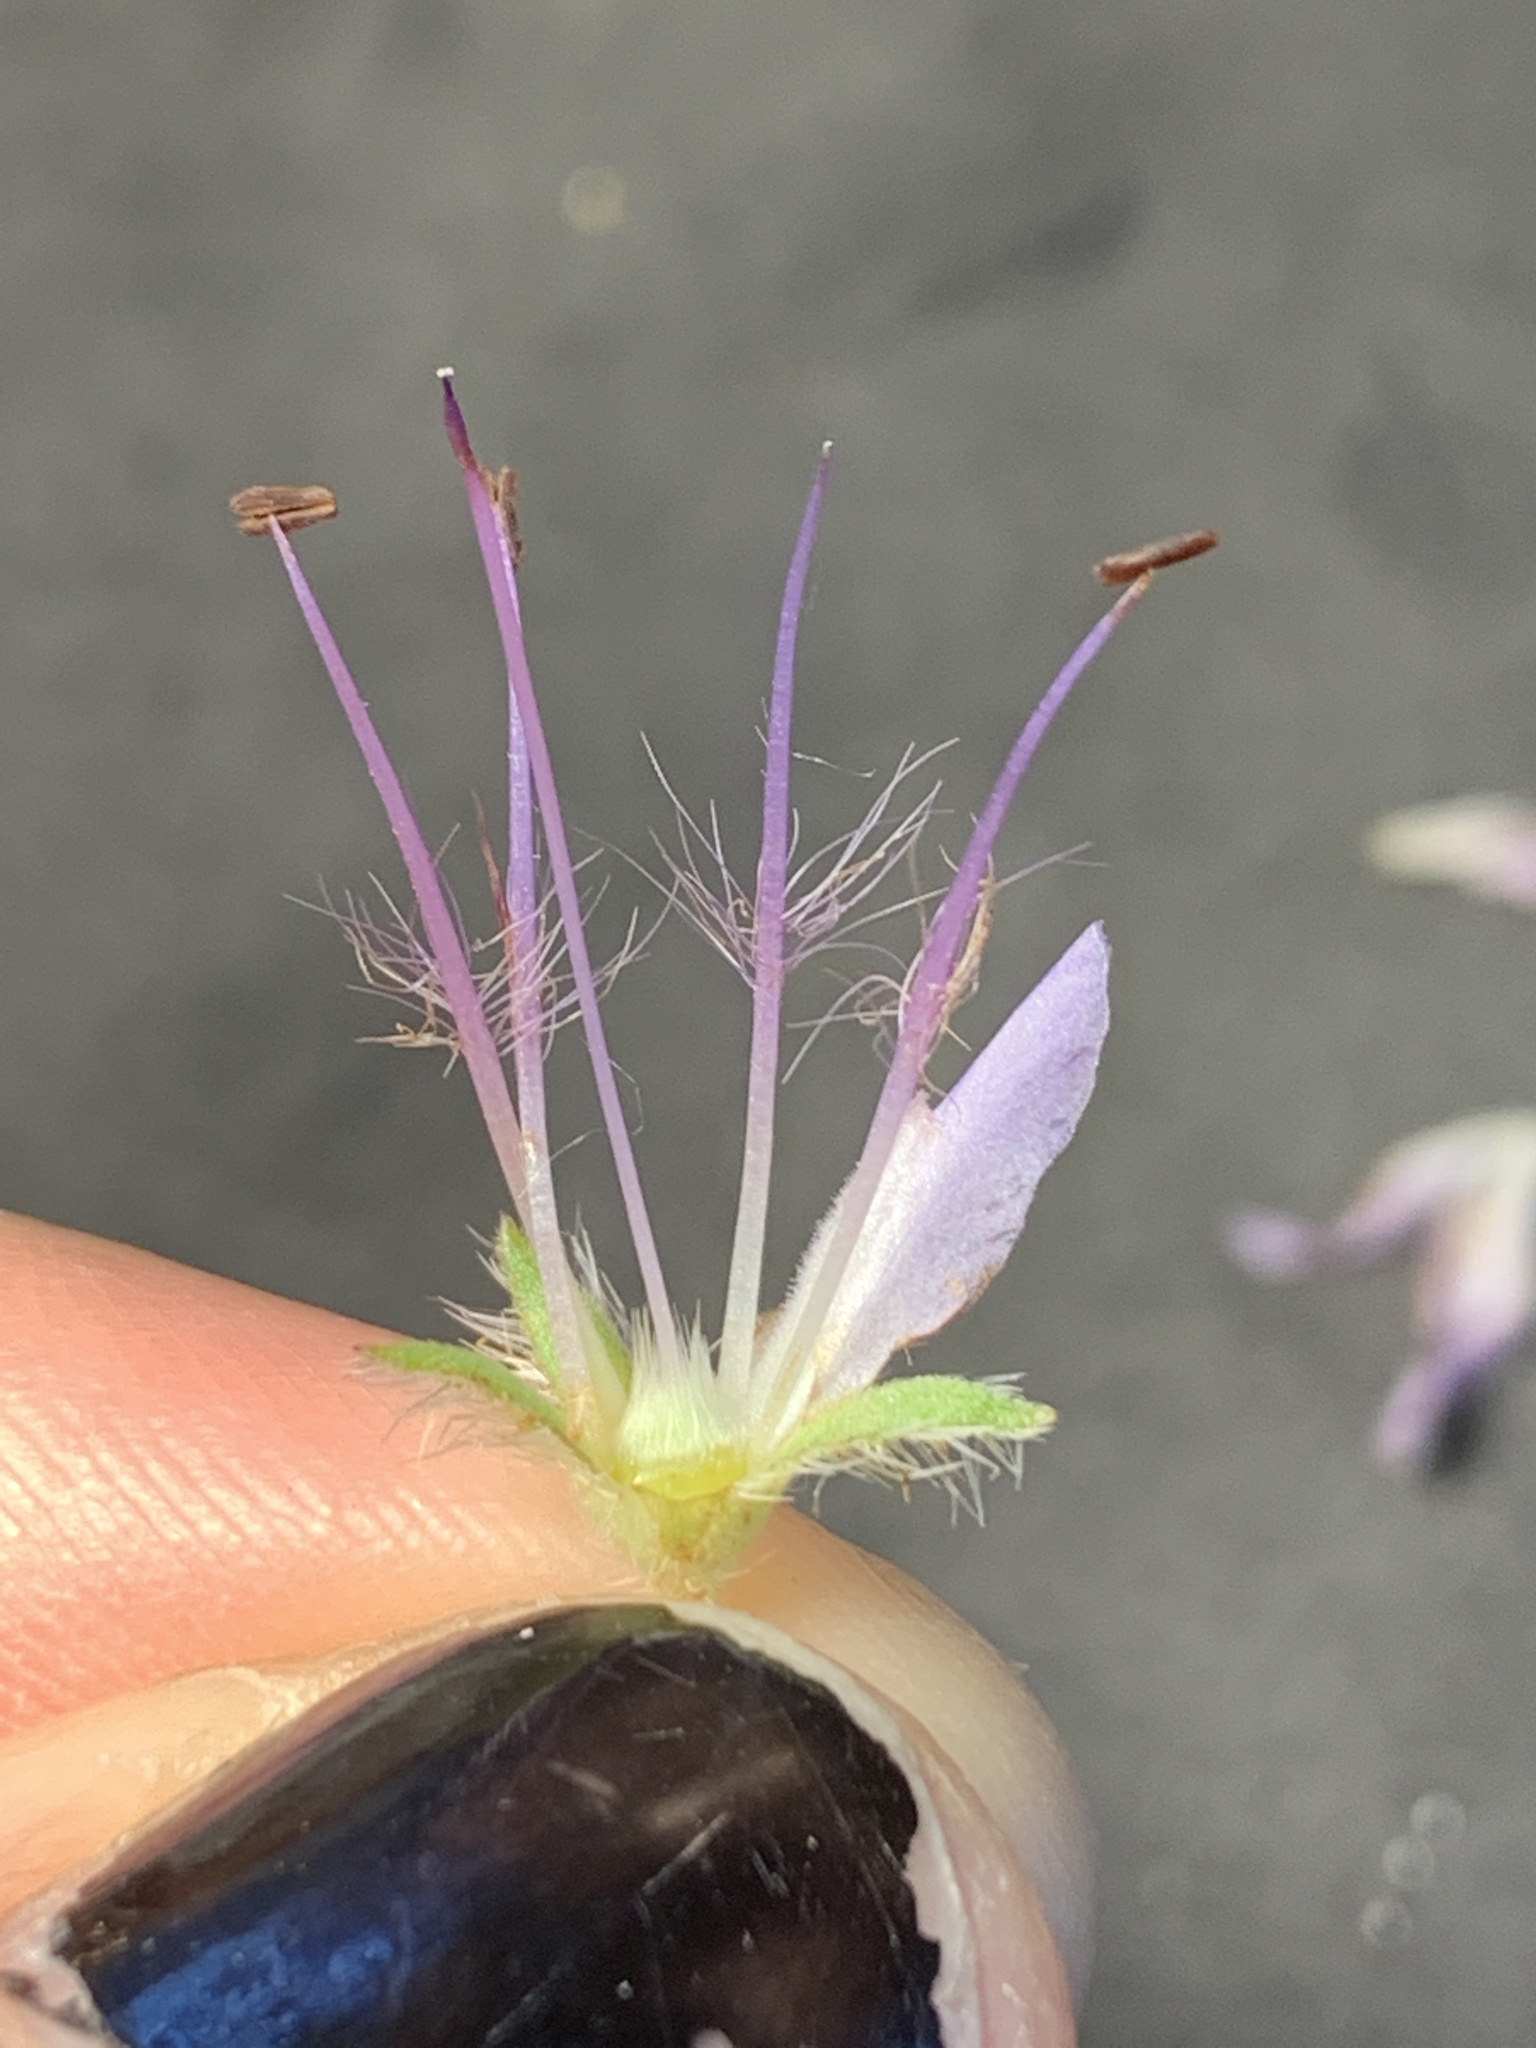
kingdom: Plantae
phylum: Tracheophyta
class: Magnoliopsida
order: Boraginales
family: Hydrophyllaceae
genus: Hydrophyllum
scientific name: Hydrophyllum occidentale
